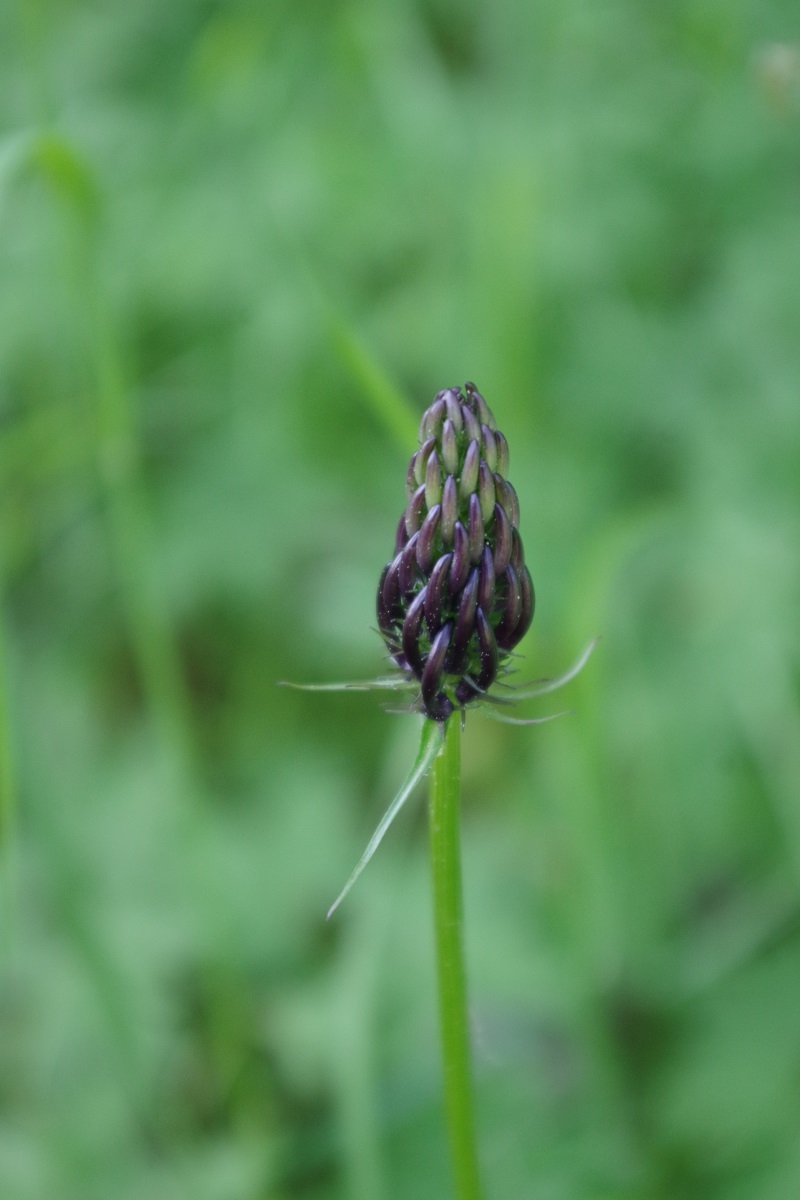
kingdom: Plantae
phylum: Tracheophyta
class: Magnoliopsida
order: Asterales
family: Campanulaceae
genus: Phyteuma
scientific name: Phyteuma nigrum
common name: Black rampion
